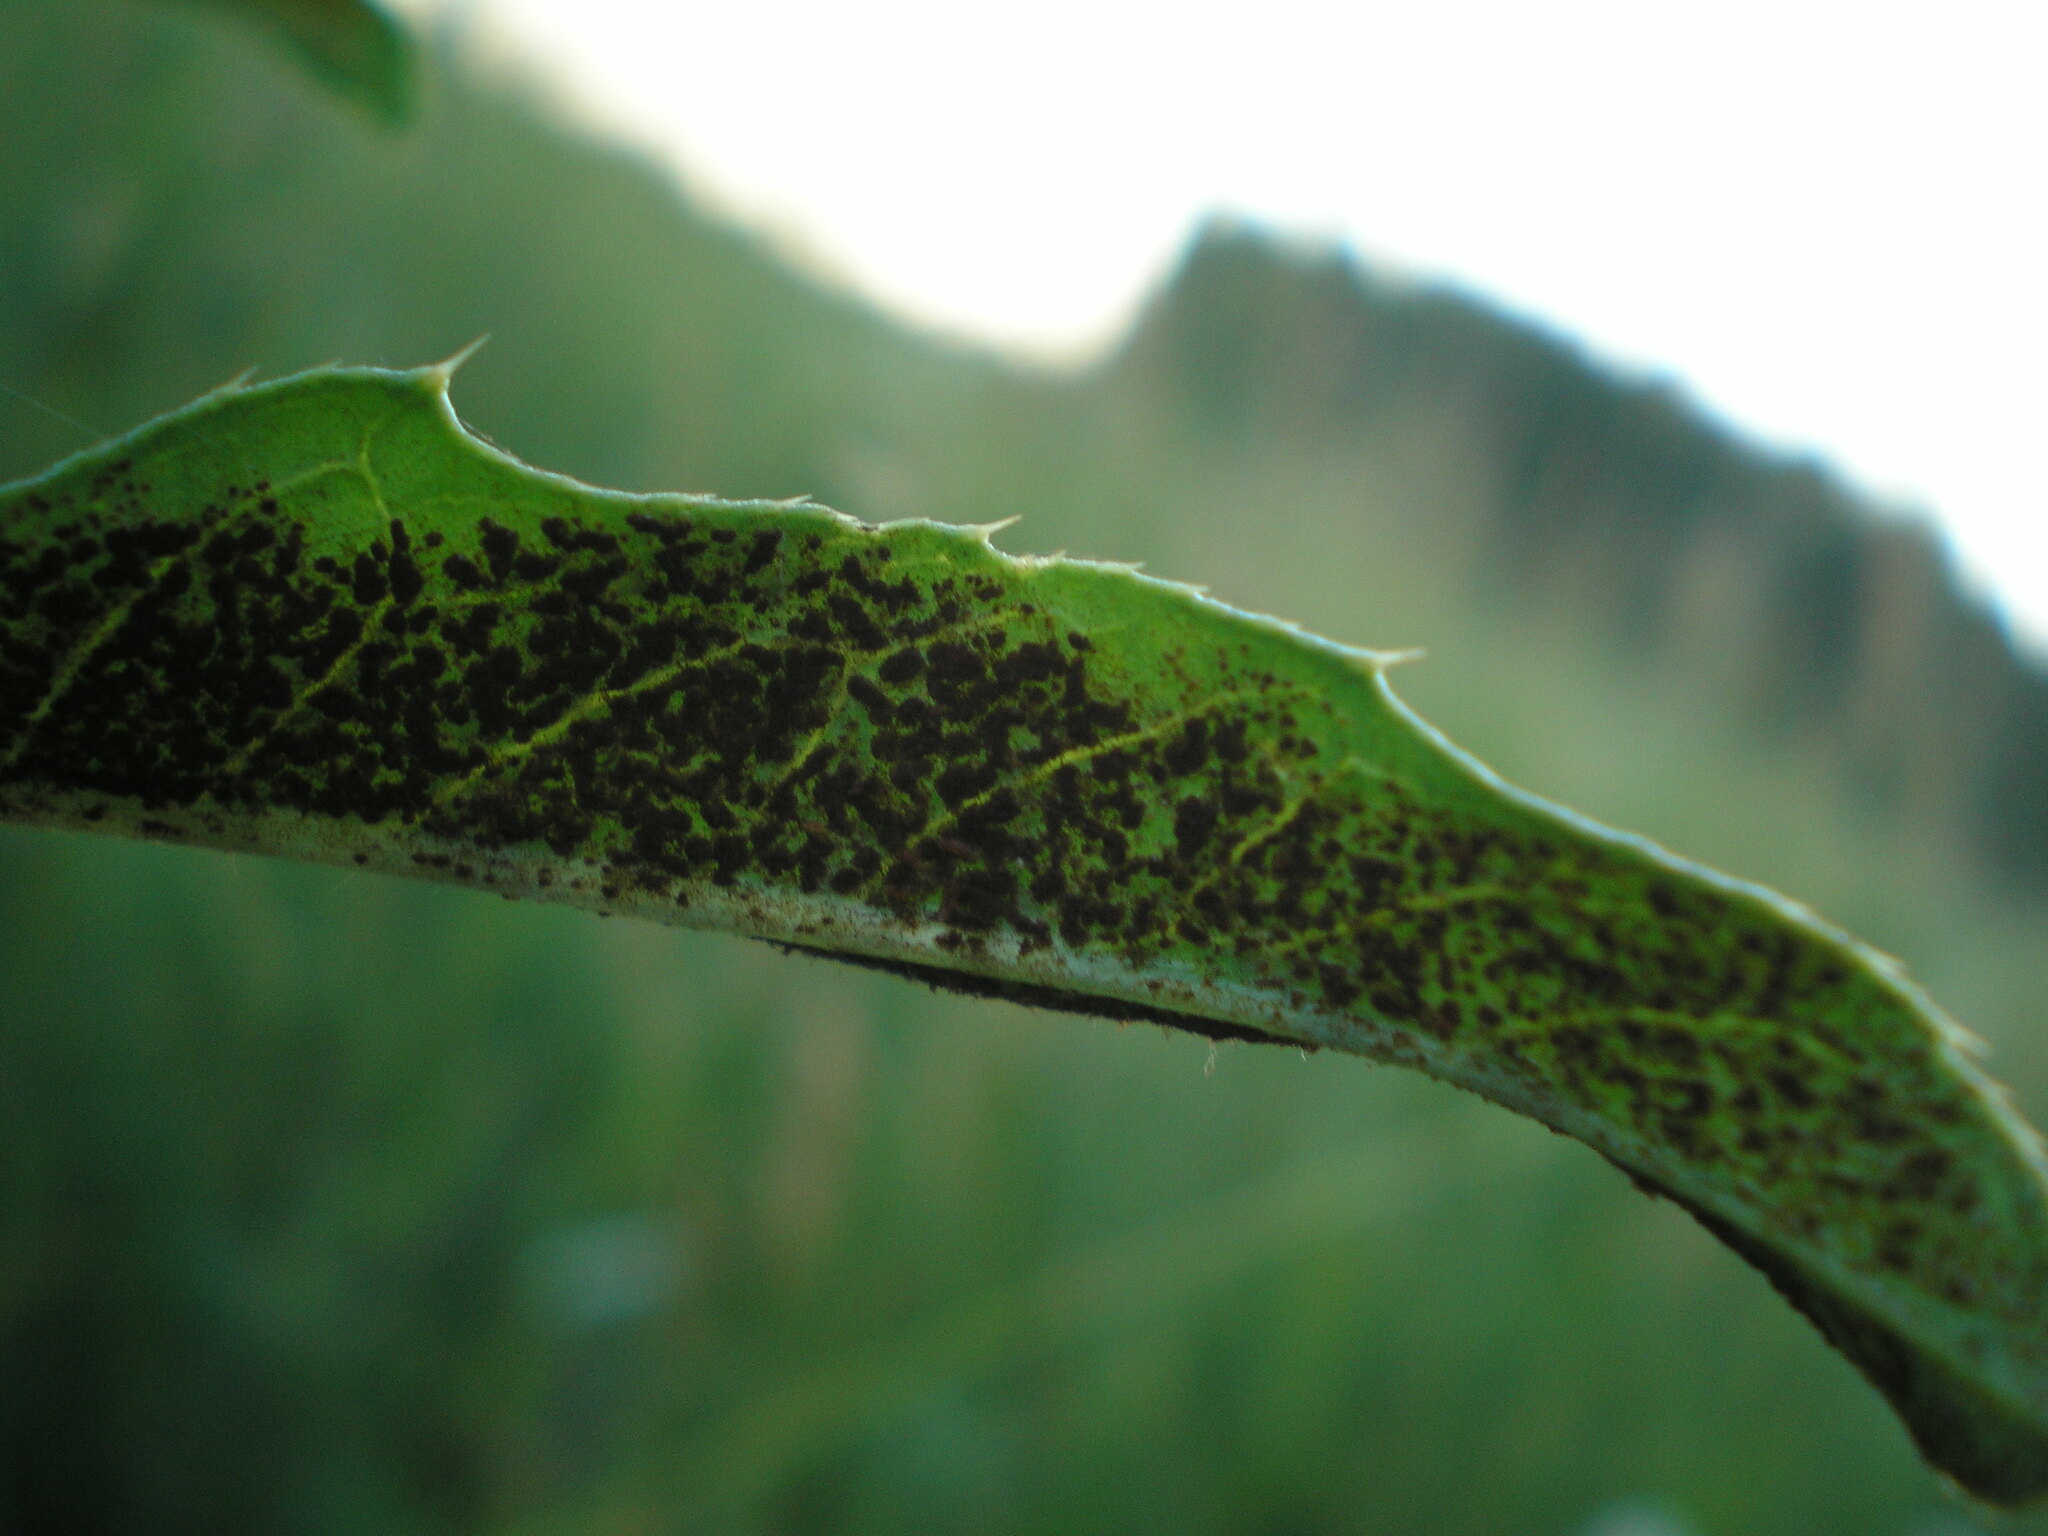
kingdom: Fungi
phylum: Basidiomycota
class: Pucciniomycetes
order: Pucciniales
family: Pucciniaceae
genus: Puccinia
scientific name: Puccinia suaveolens
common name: Thistle rust
